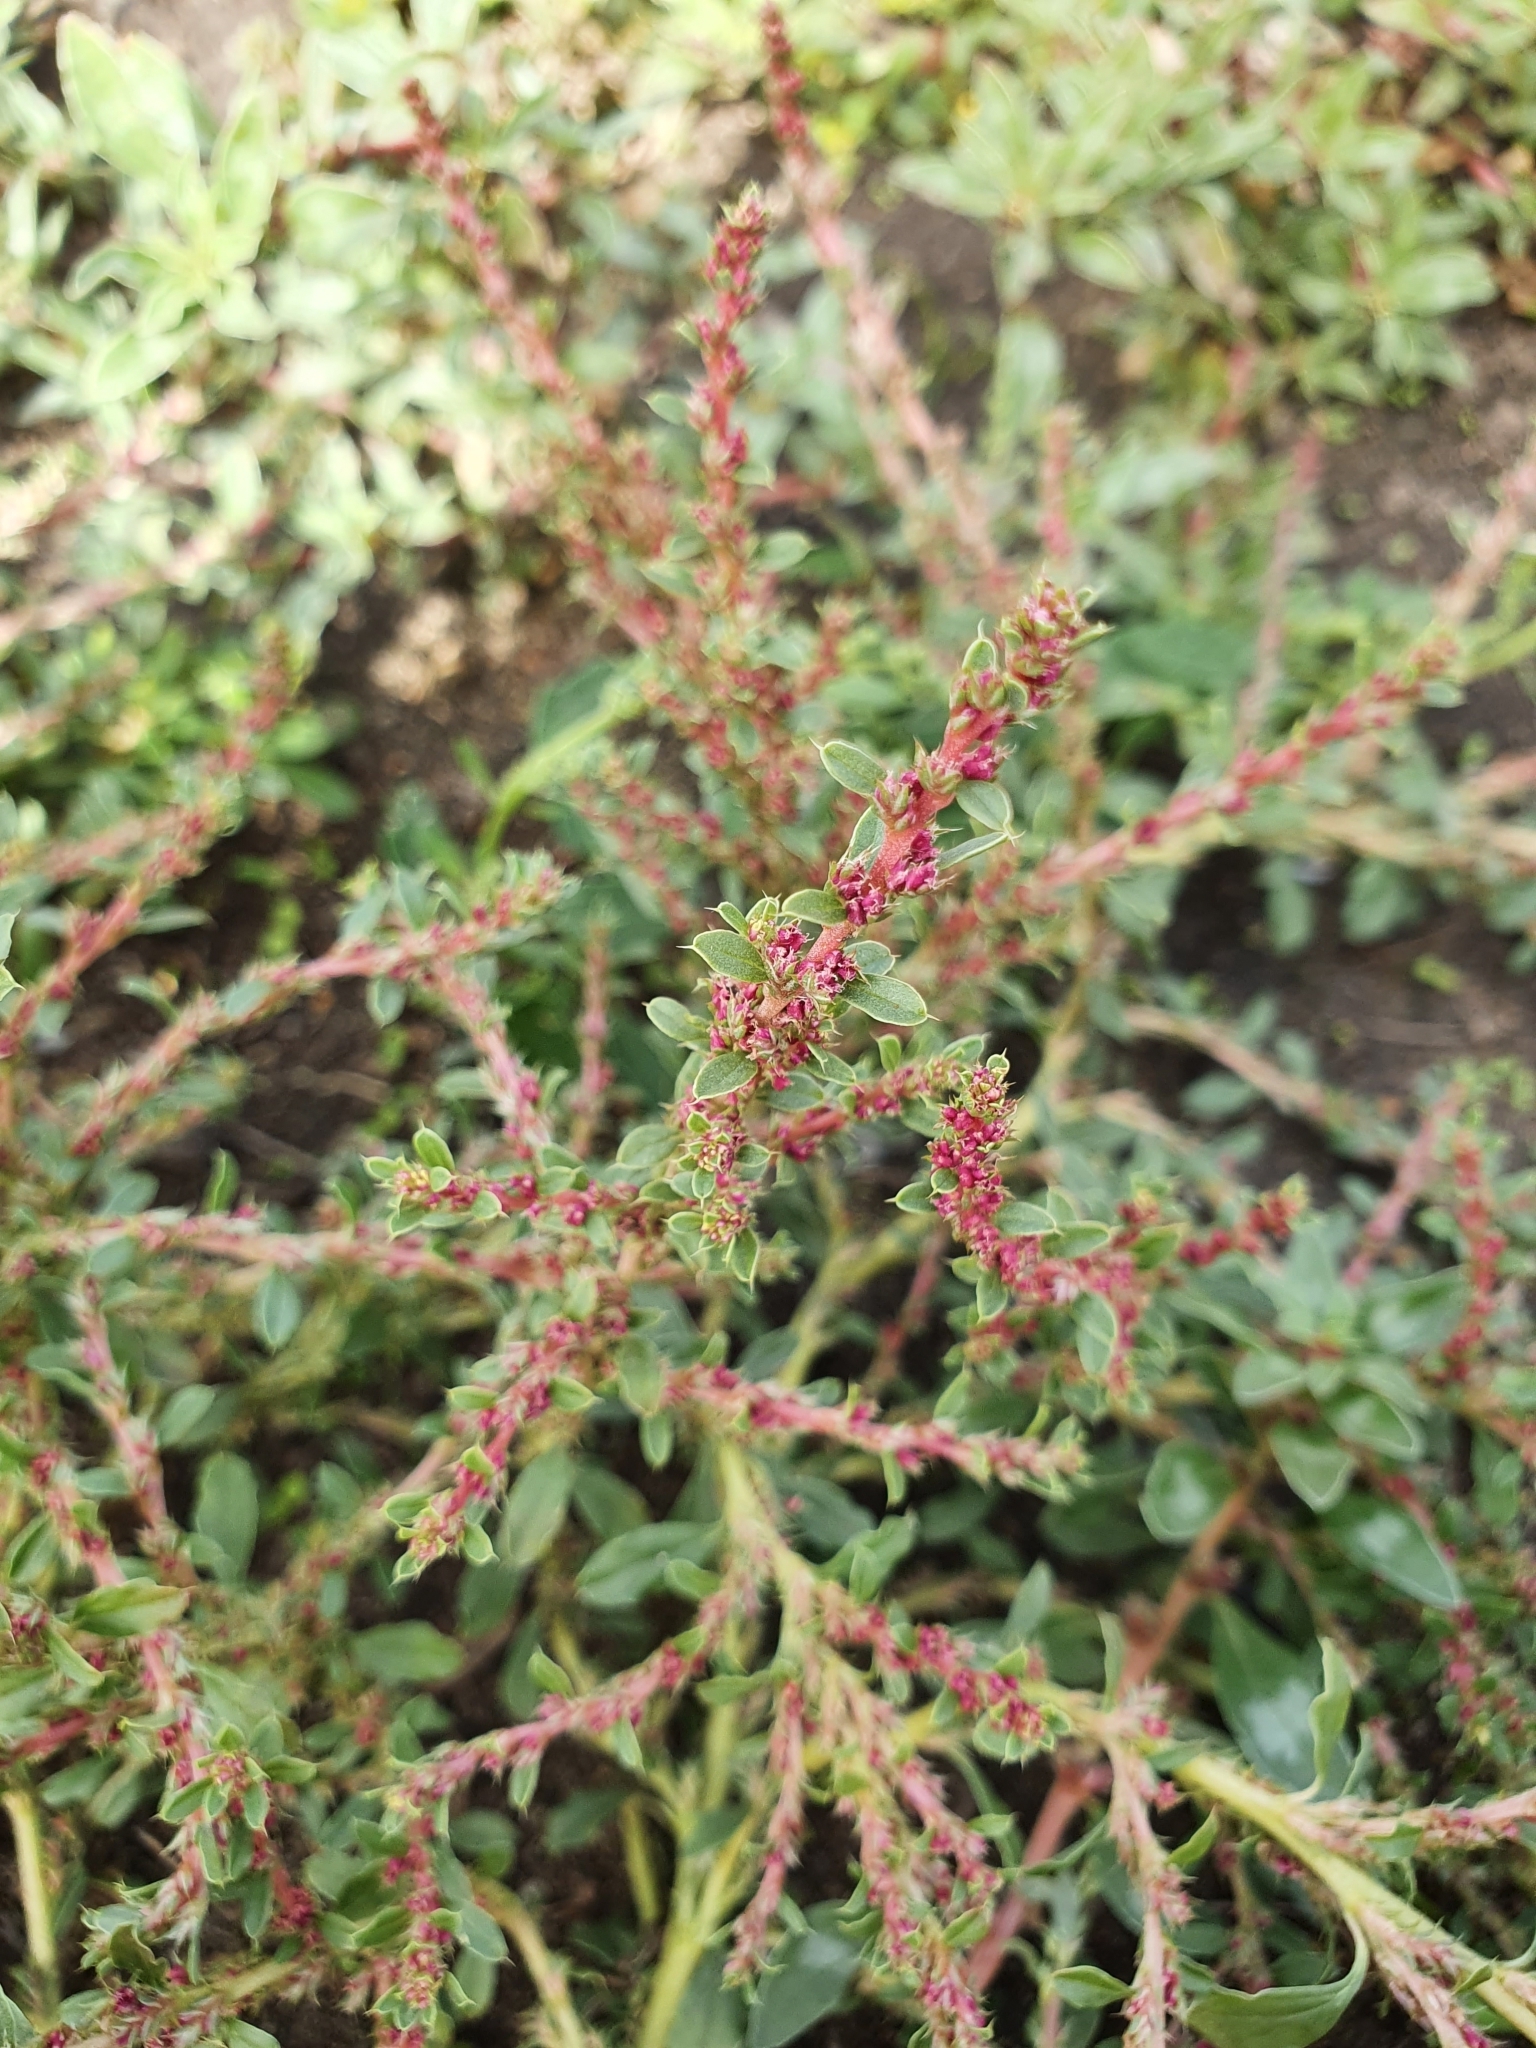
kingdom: Plantae
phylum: Tracheophyta
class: Magnoliopsida
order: Caryophyllales
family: Amaranthaceae
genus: Amaranthus
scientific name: Amaranthus albus
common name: White pigweed
